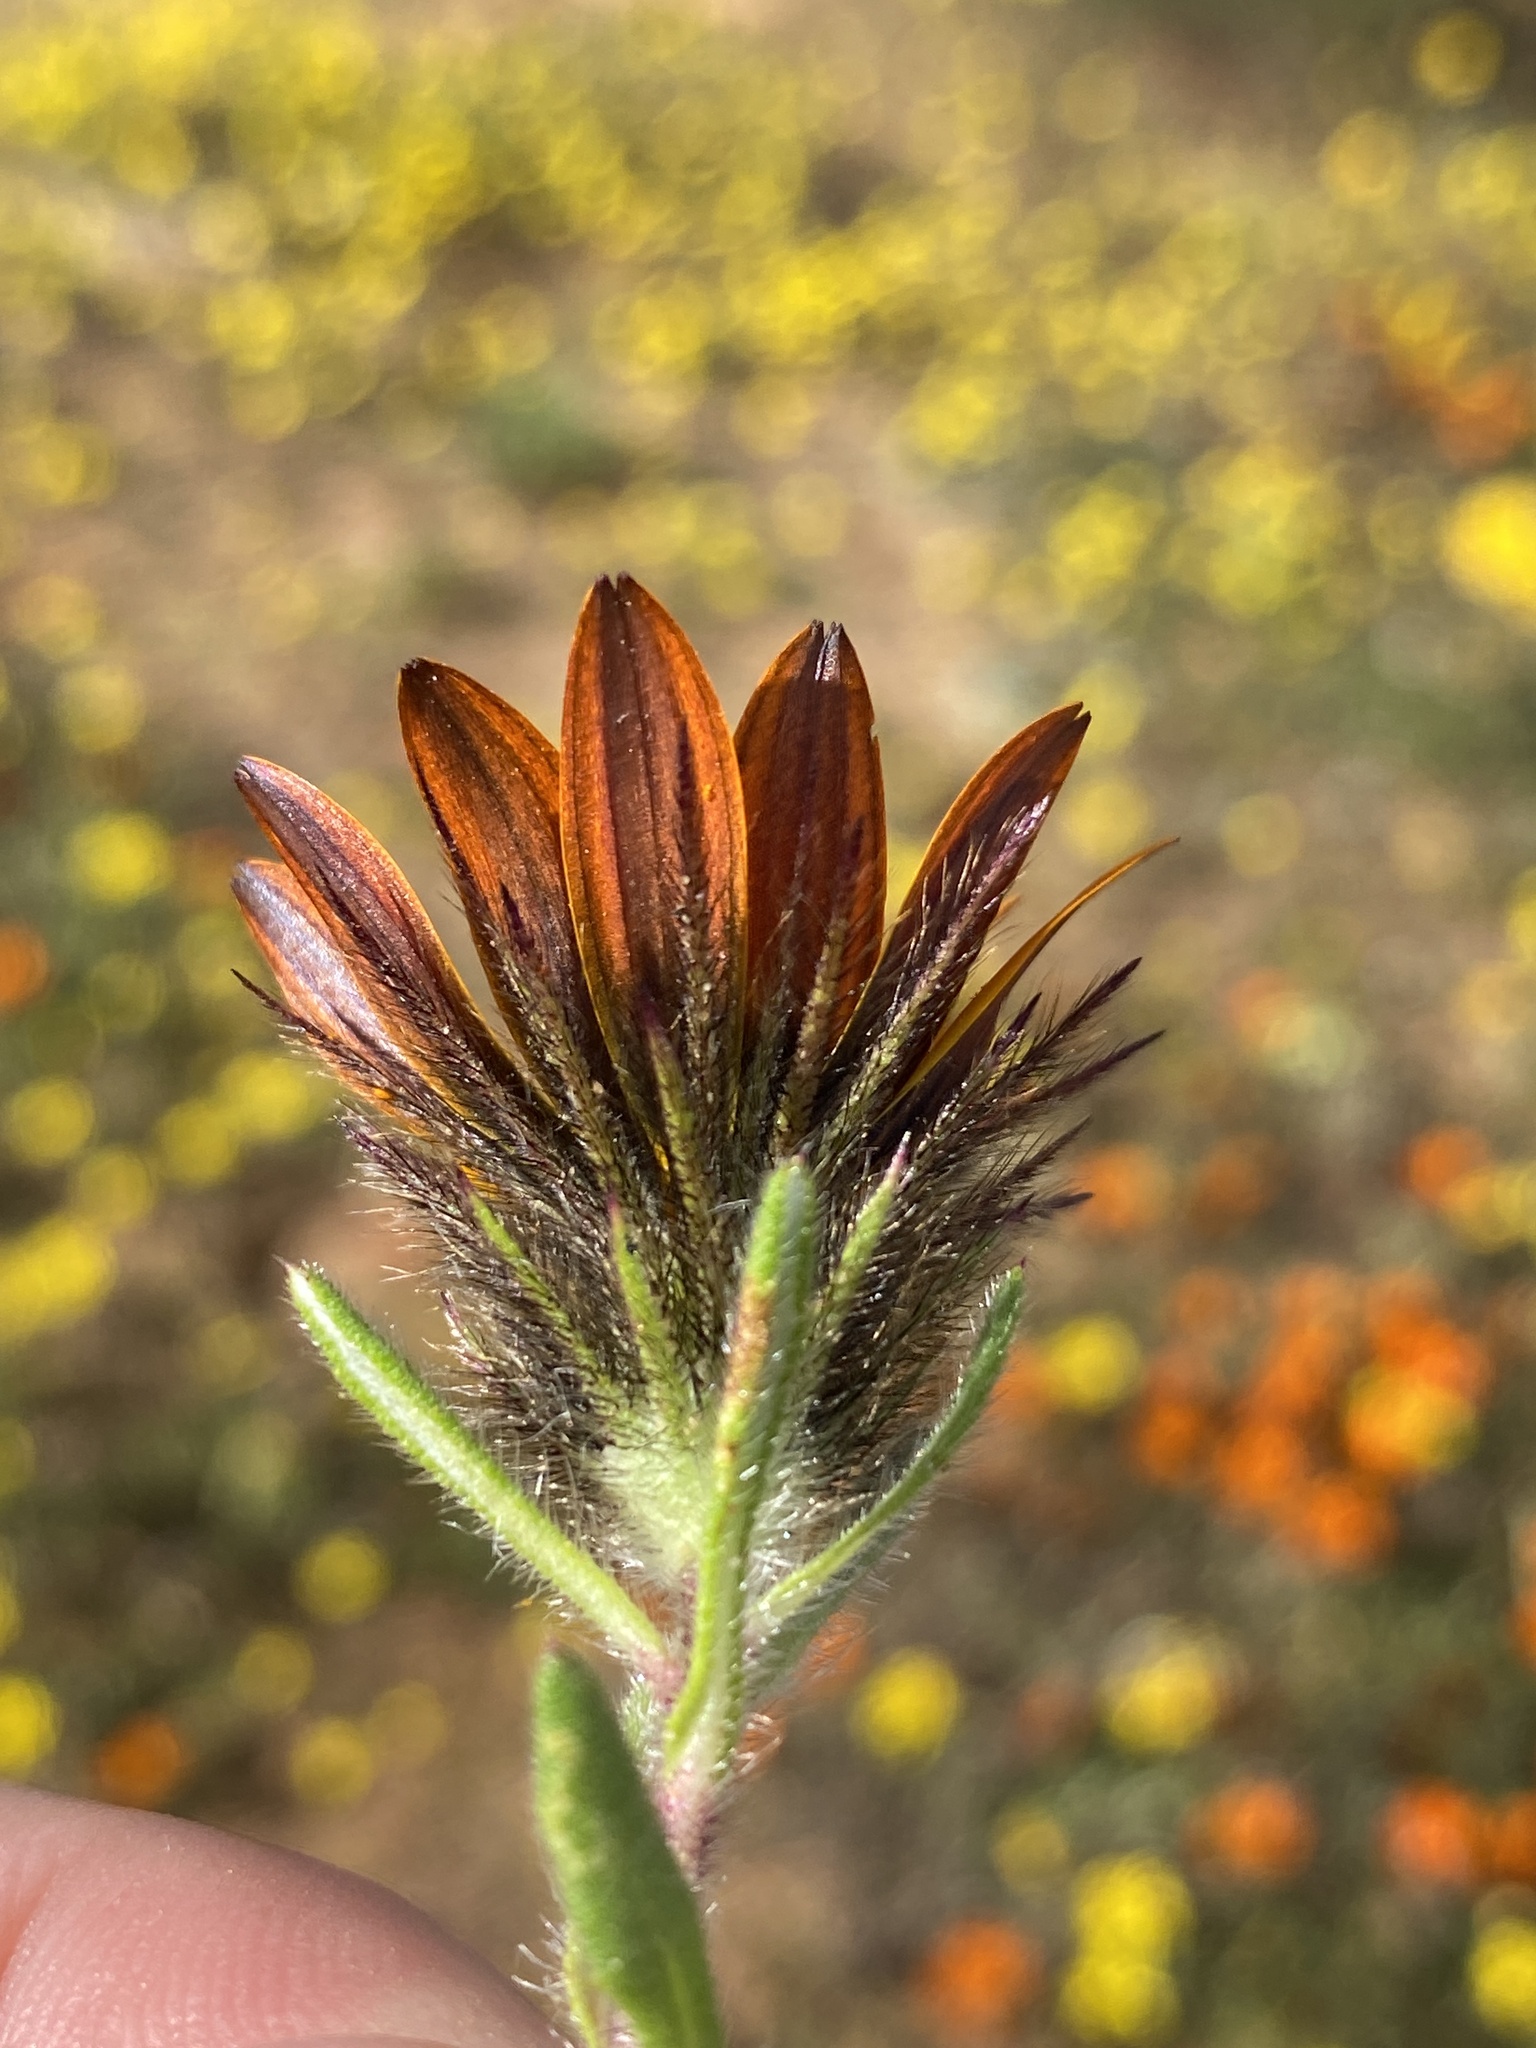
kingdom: Plantae
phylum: Tracheophyta
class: Magnoliopsida
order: Asterales
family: Asteraceae
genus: Gorteria
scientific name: Gorteria diffusa
